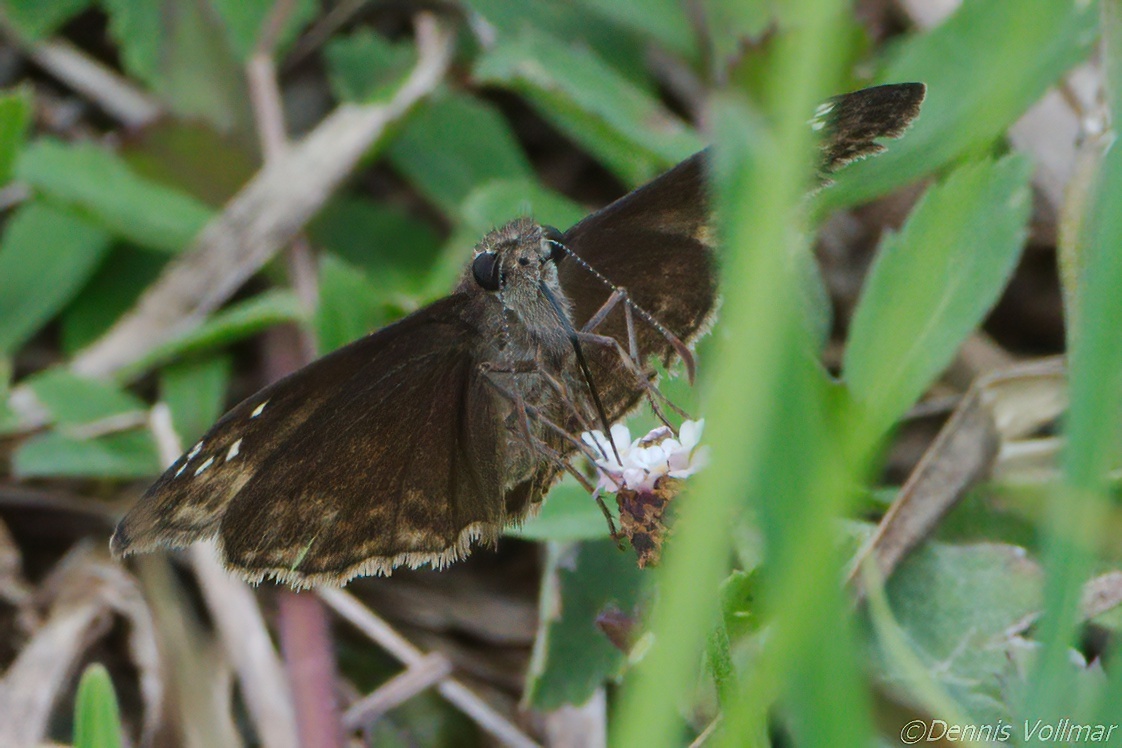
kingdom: Animalia
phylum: Arthropoda
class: Insecta
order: Lepidoptera
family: Hesperiidae
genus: Erynnis
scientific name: Erynnis horatius
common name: Horace's duskywing
